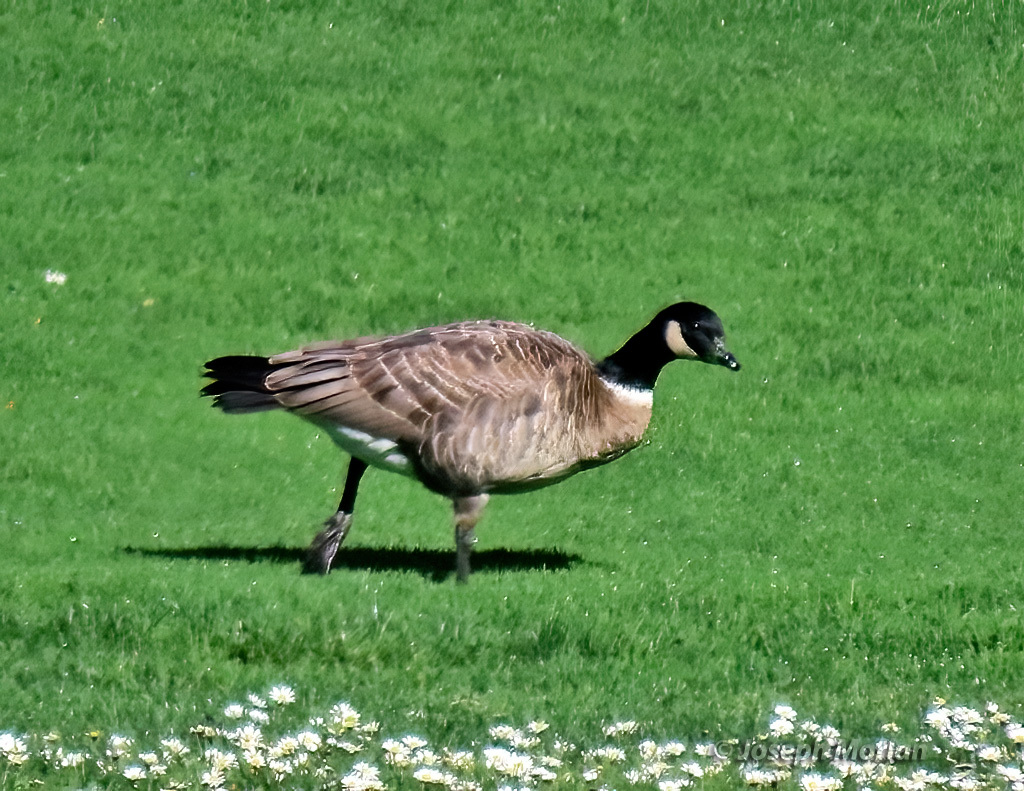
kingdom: Animalia
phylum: Chordata
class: Aves
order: Anseriformes
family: Anatidae
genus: Branta
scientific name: Branta hutchinsii
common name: Cackling goose
